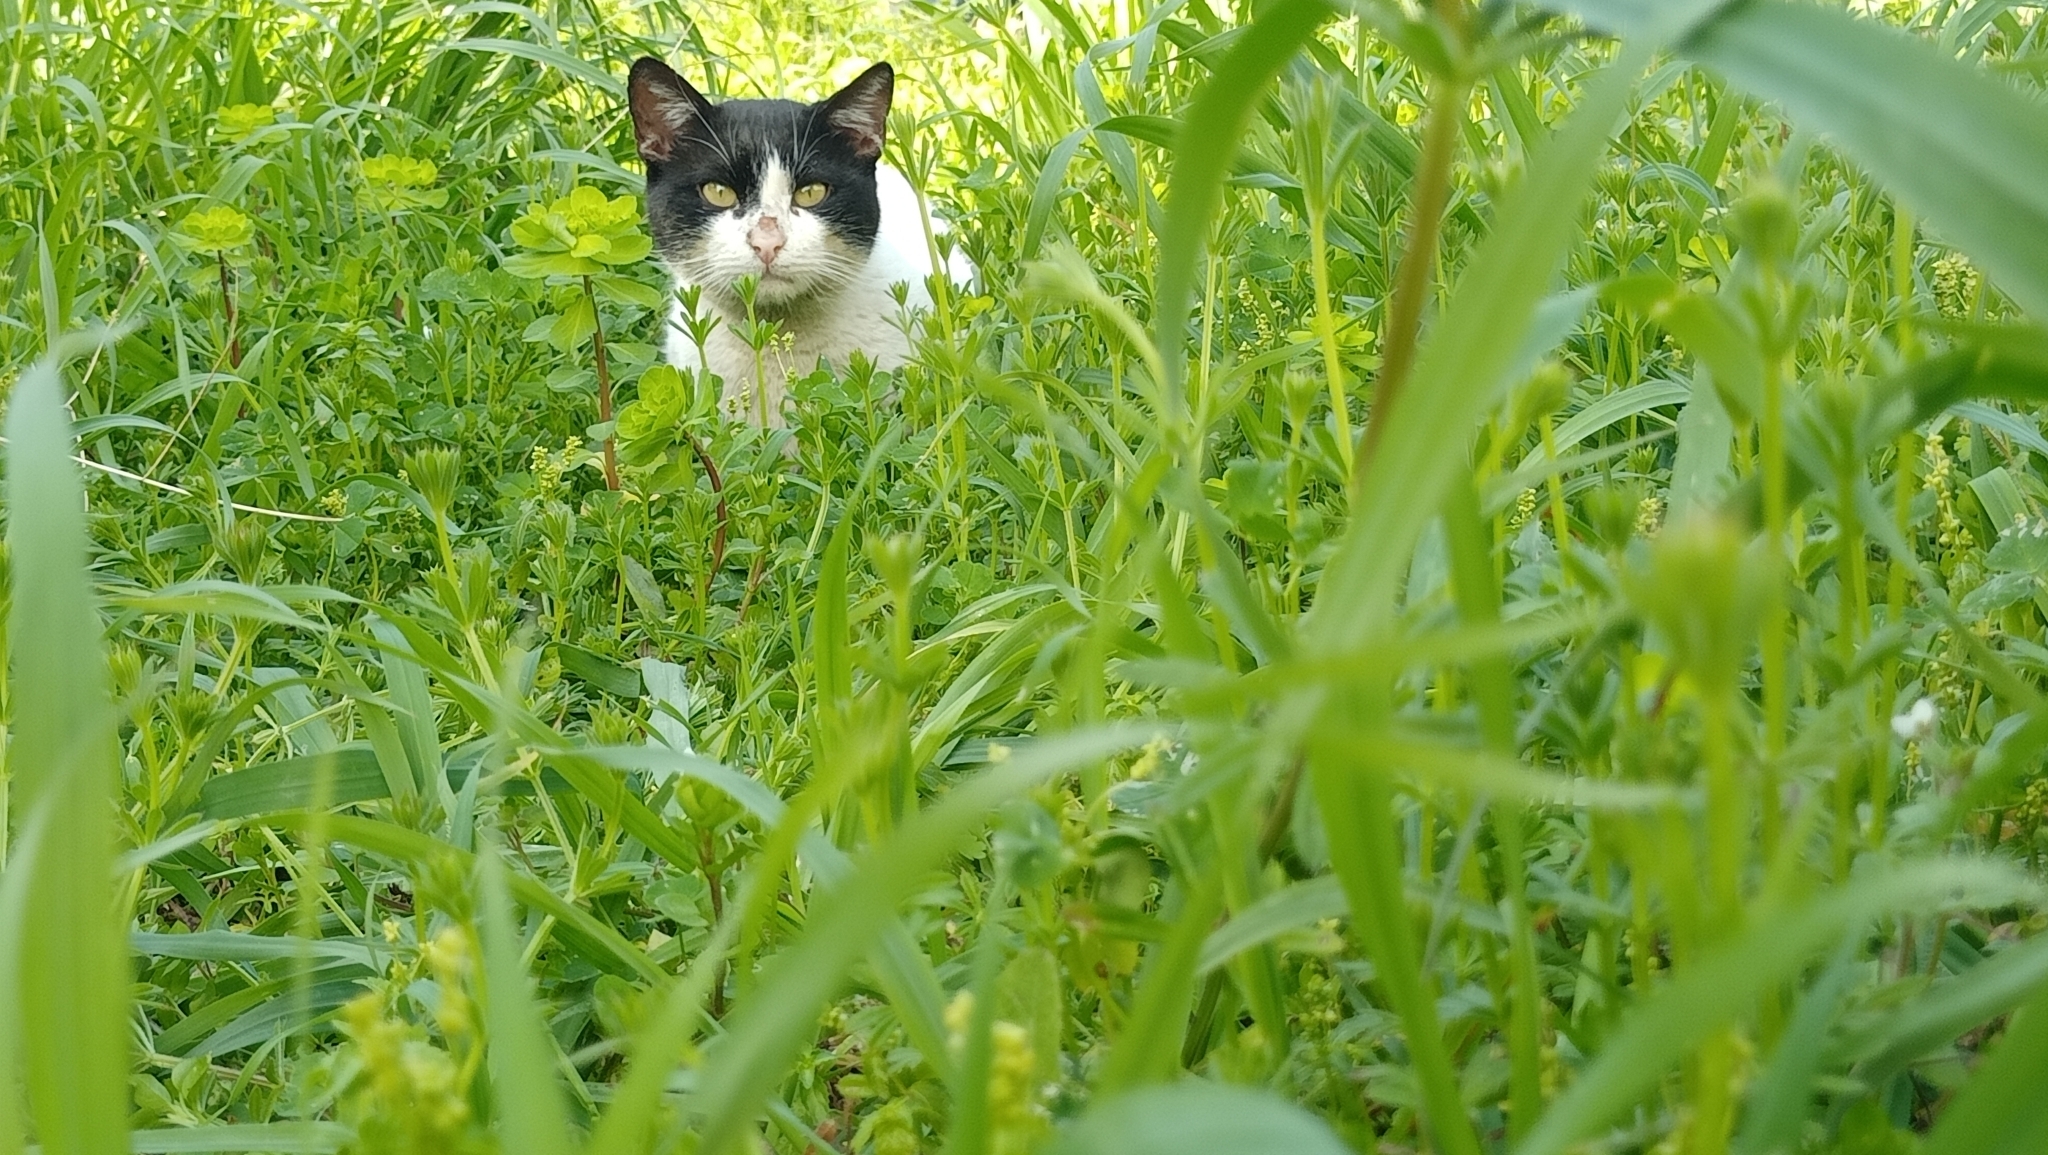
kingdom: Animalia
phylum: Chordata
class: Mammalia
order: Carnivora
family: Felidae
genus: Felis
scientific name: Felis catus
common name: Domestic cat
